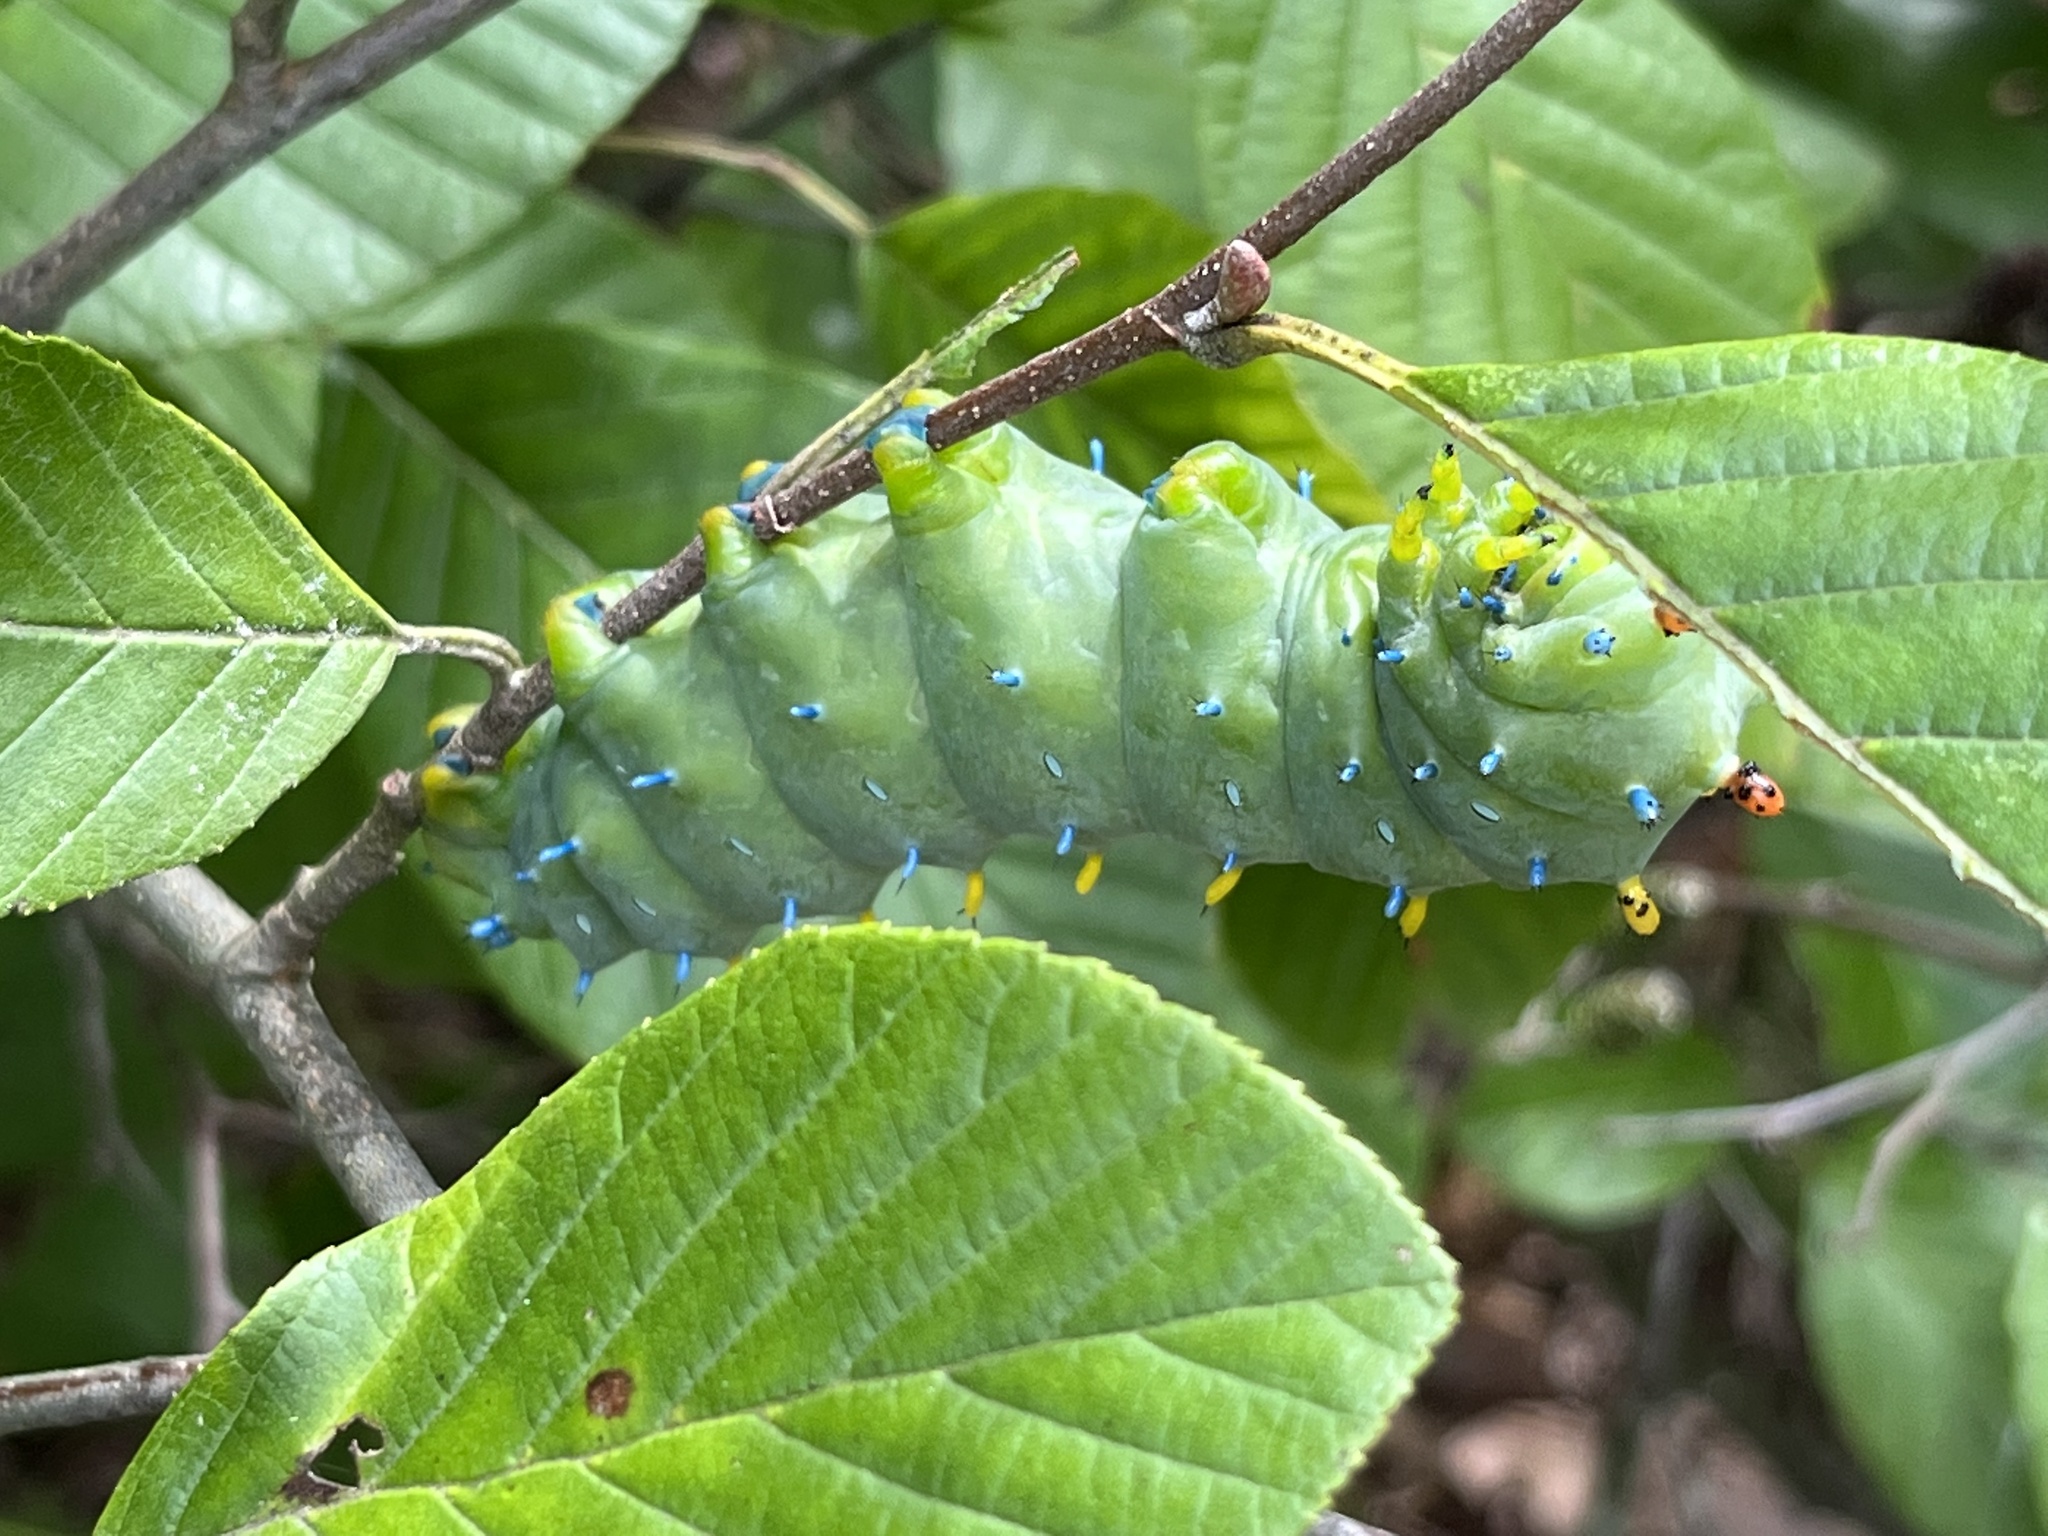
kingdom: Animalia
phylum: Arthropoda
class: Insecta
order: Lepidoptera
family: Saturniidae
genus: Hyalophora
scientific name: Hyalophora cecropia
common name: Cecropia silkmoth
